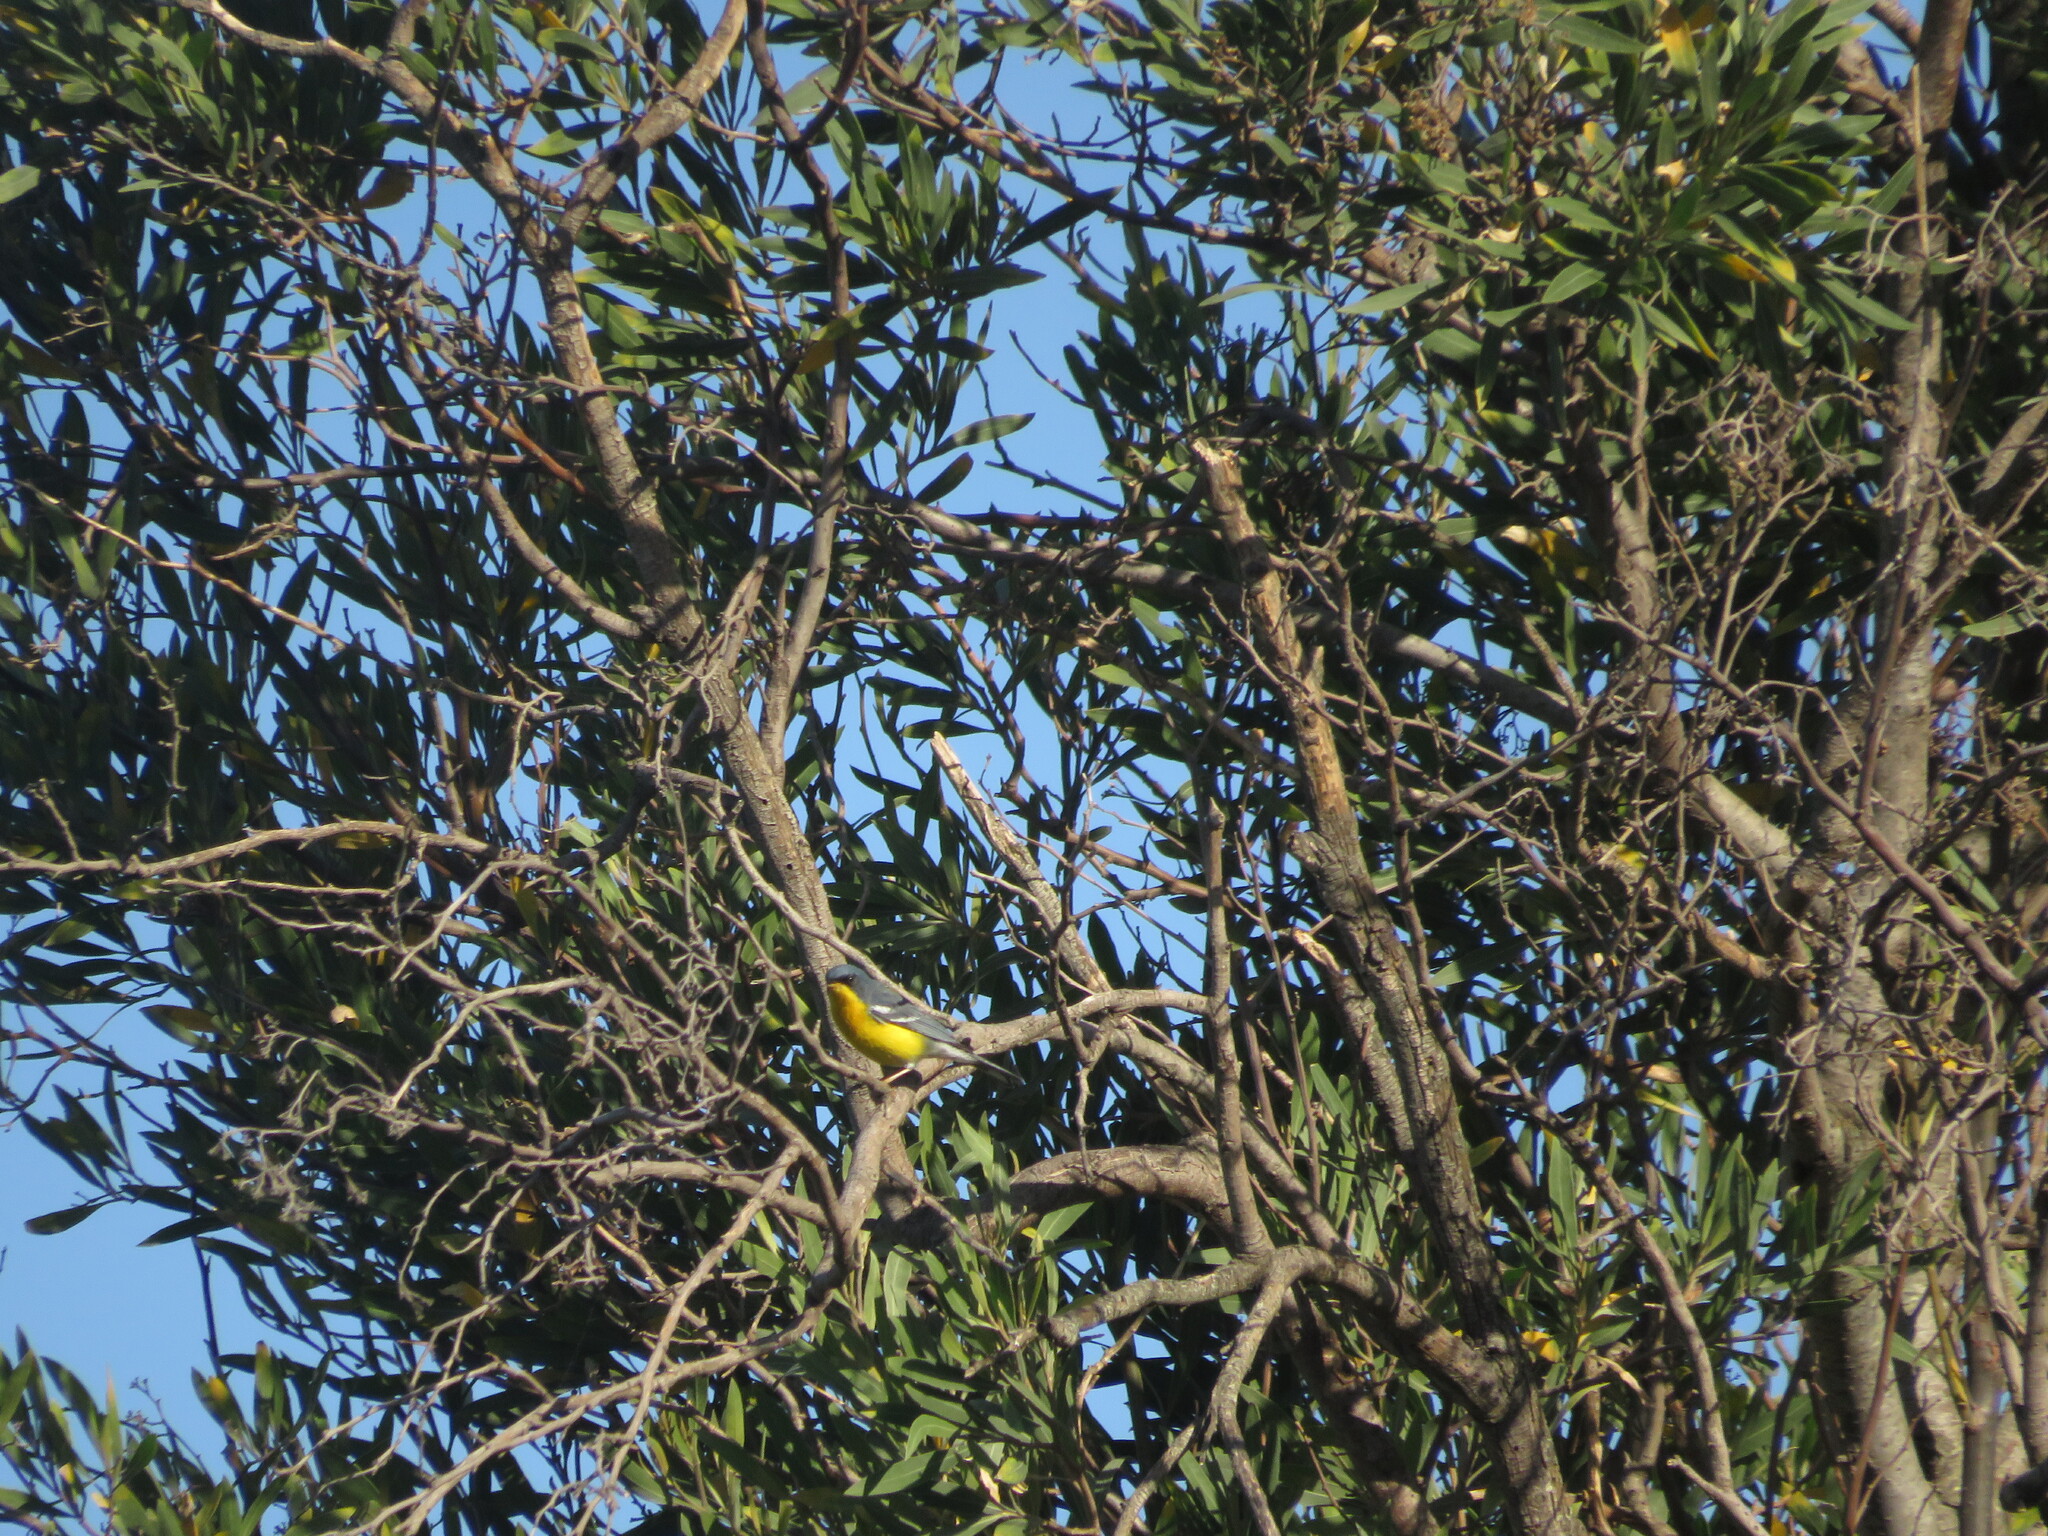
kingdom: Animalia
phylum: Chordata
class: Aves
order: Passeriformes
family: Parulidae
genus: Setophaga
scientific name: Setophaga pitiayumi
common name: Tropical parula
